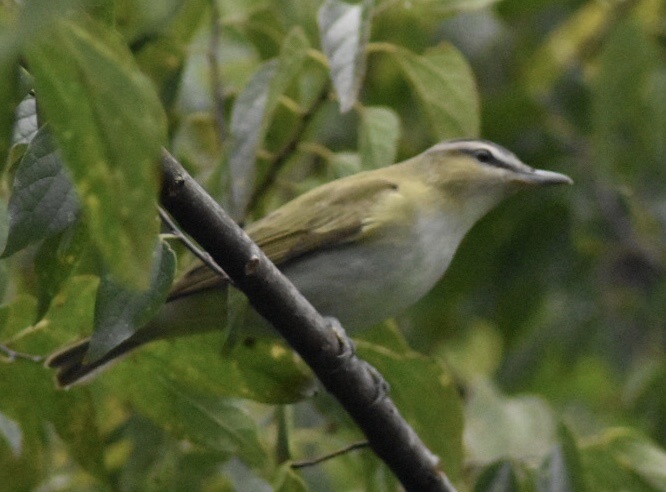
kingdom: Animalia
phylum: Chordata
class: Aves
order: Passeriformes
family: Vireonidae
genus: Vireo
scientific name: Vireo olivaceus
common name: Red-eyed vireo
